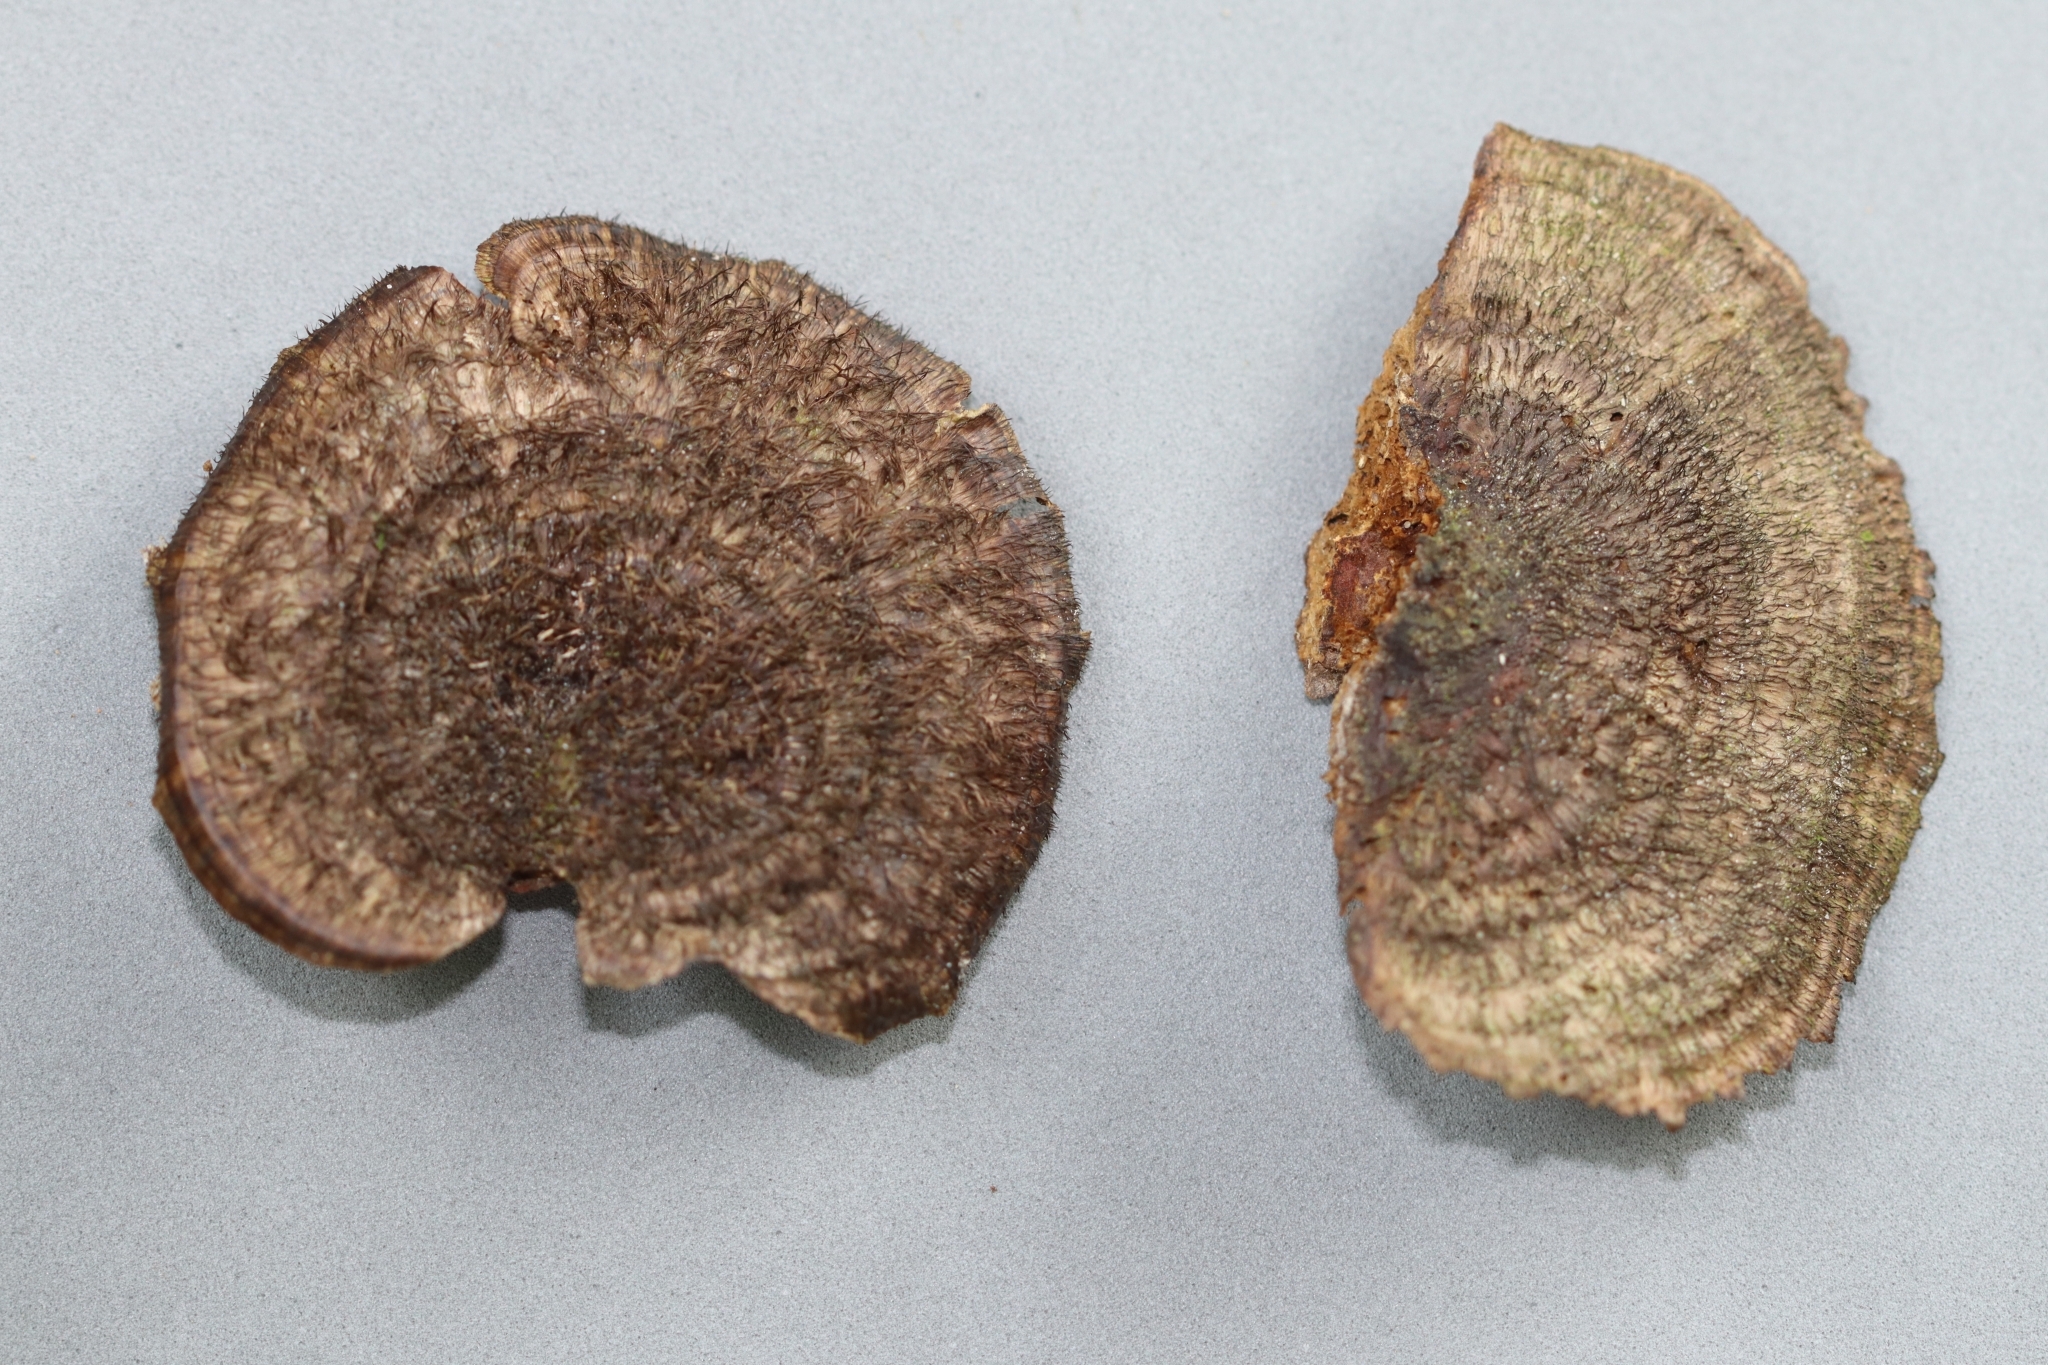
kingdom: Fungi
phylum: Basidiomycota
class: Agaricomycetes
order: Polyporales
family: Cerrenaceae
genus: Cerrena
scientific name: Cerrena hydnoides
